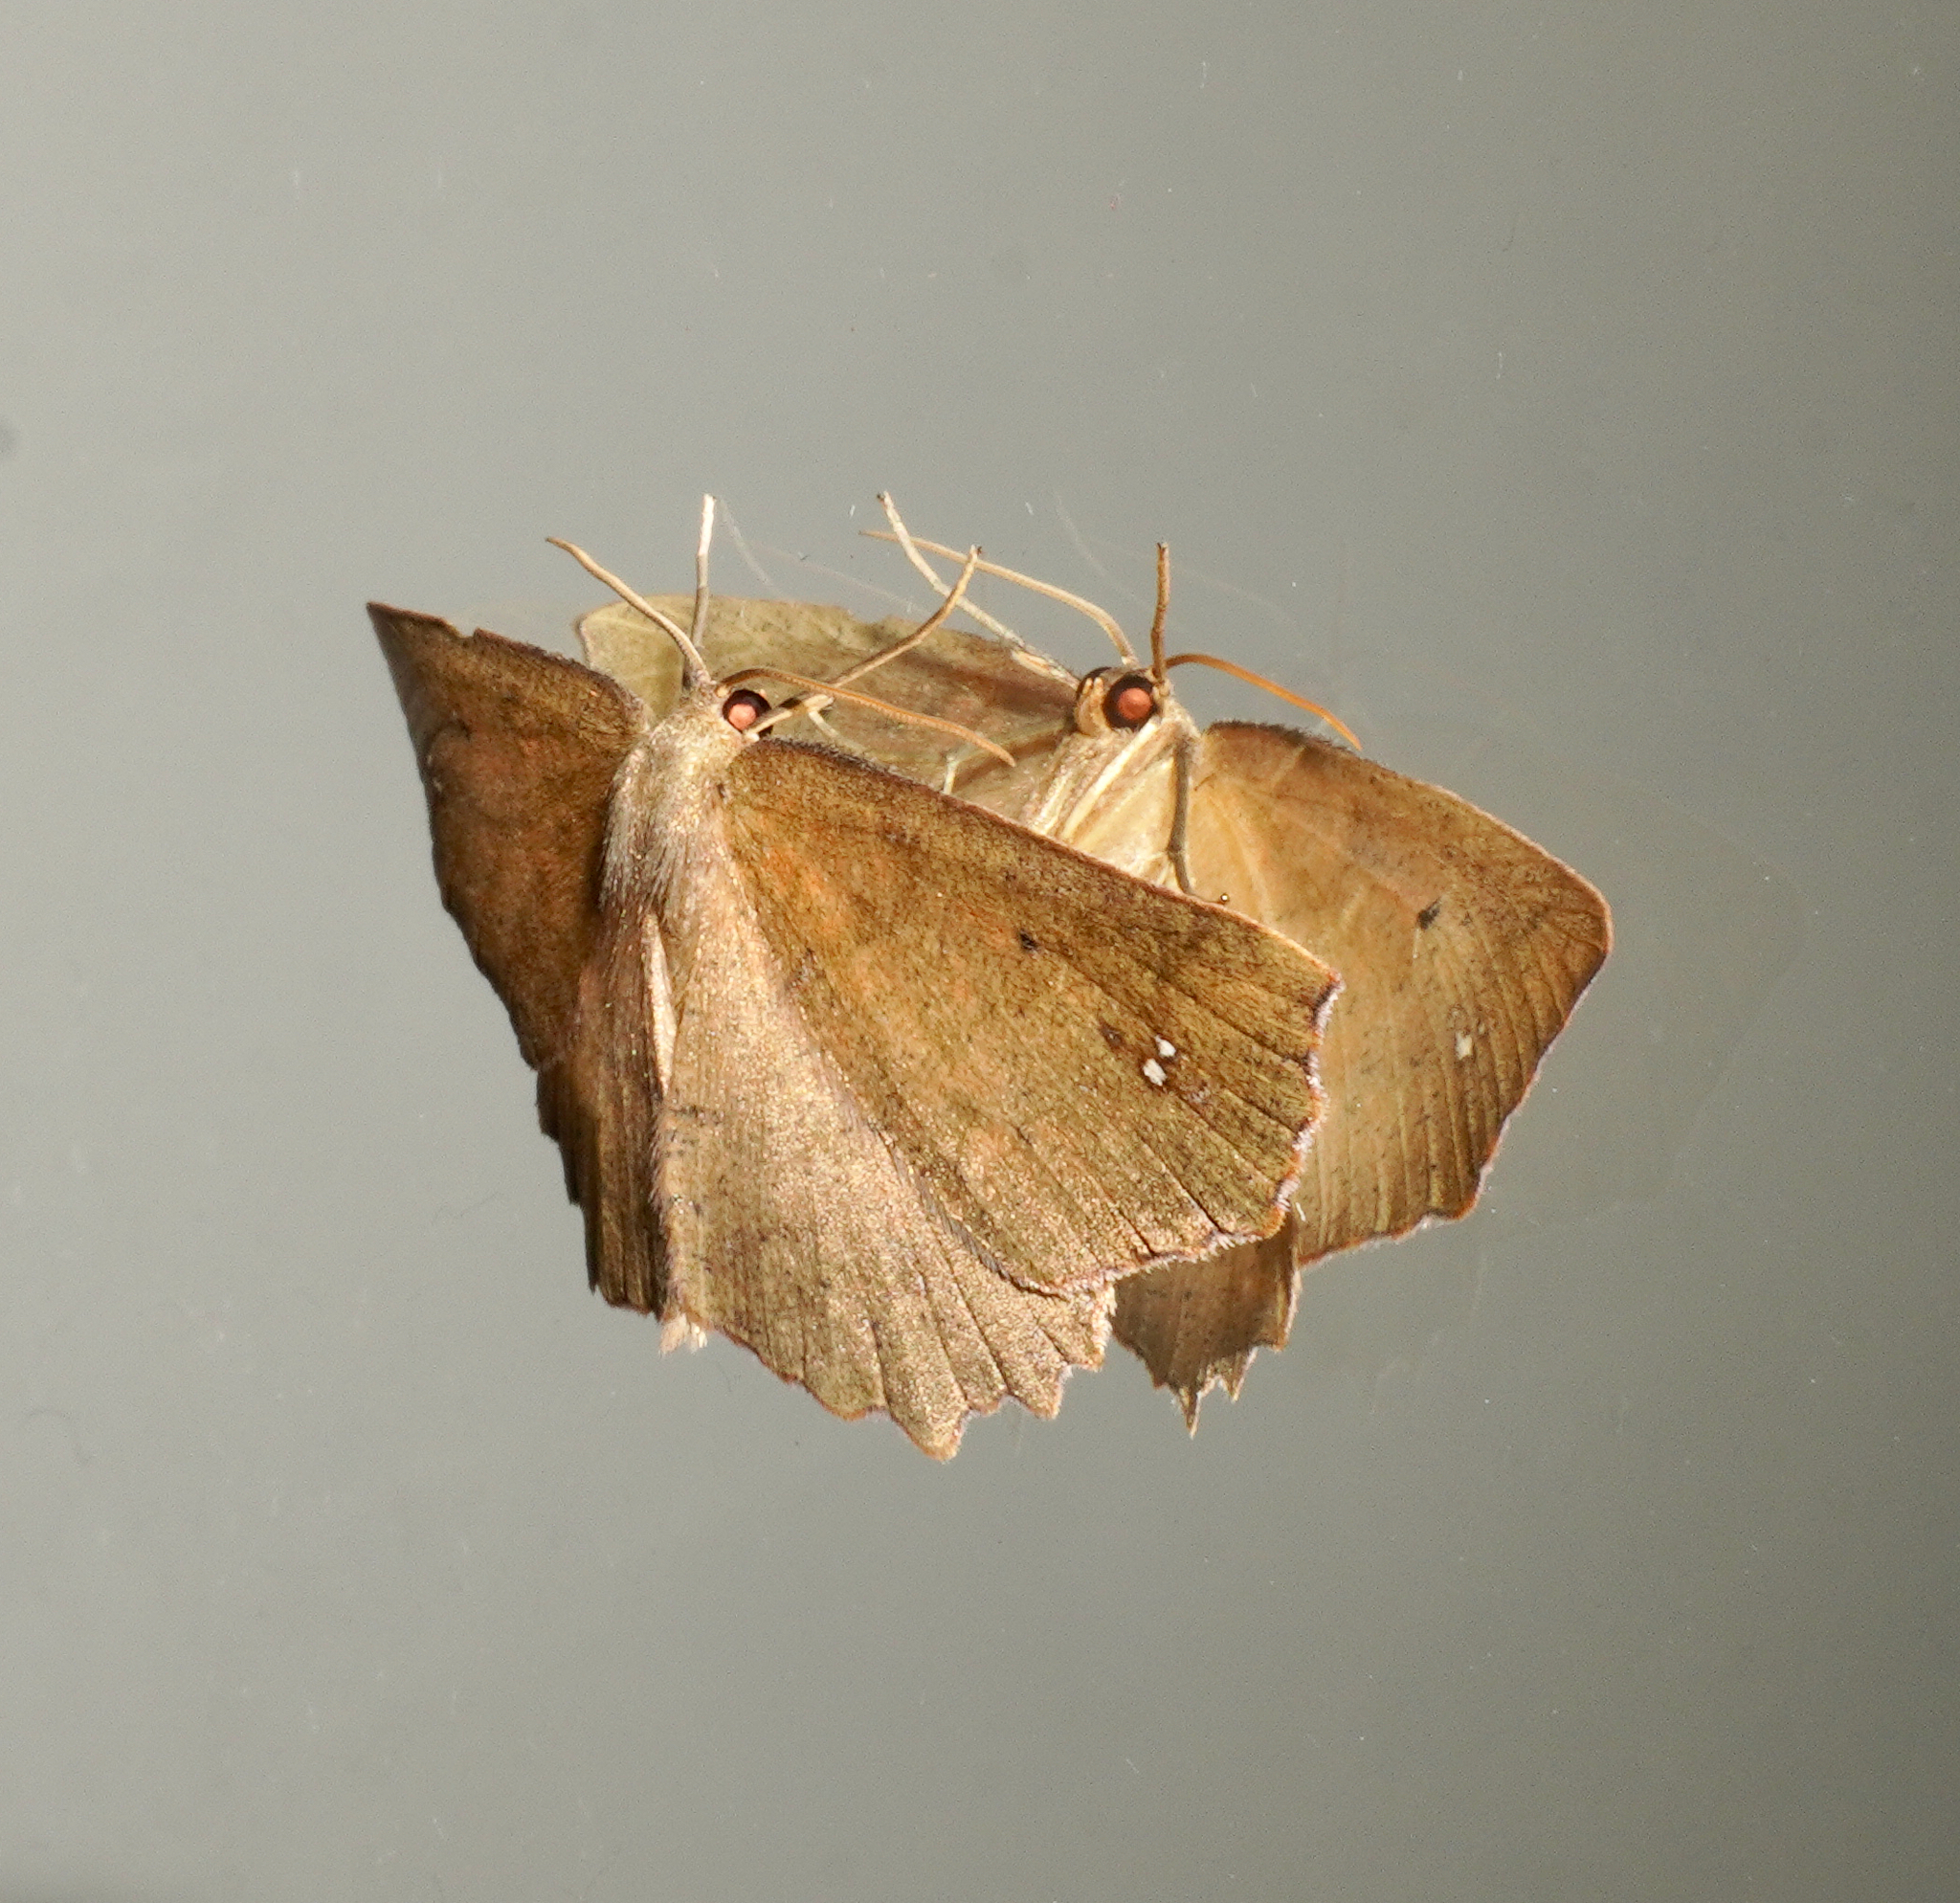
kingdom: Animalia
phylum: Arthropoda
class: Insecta
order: Lepidoptera
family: Geometridae
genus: Xyridacma
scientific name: Xyridacma ustaria
